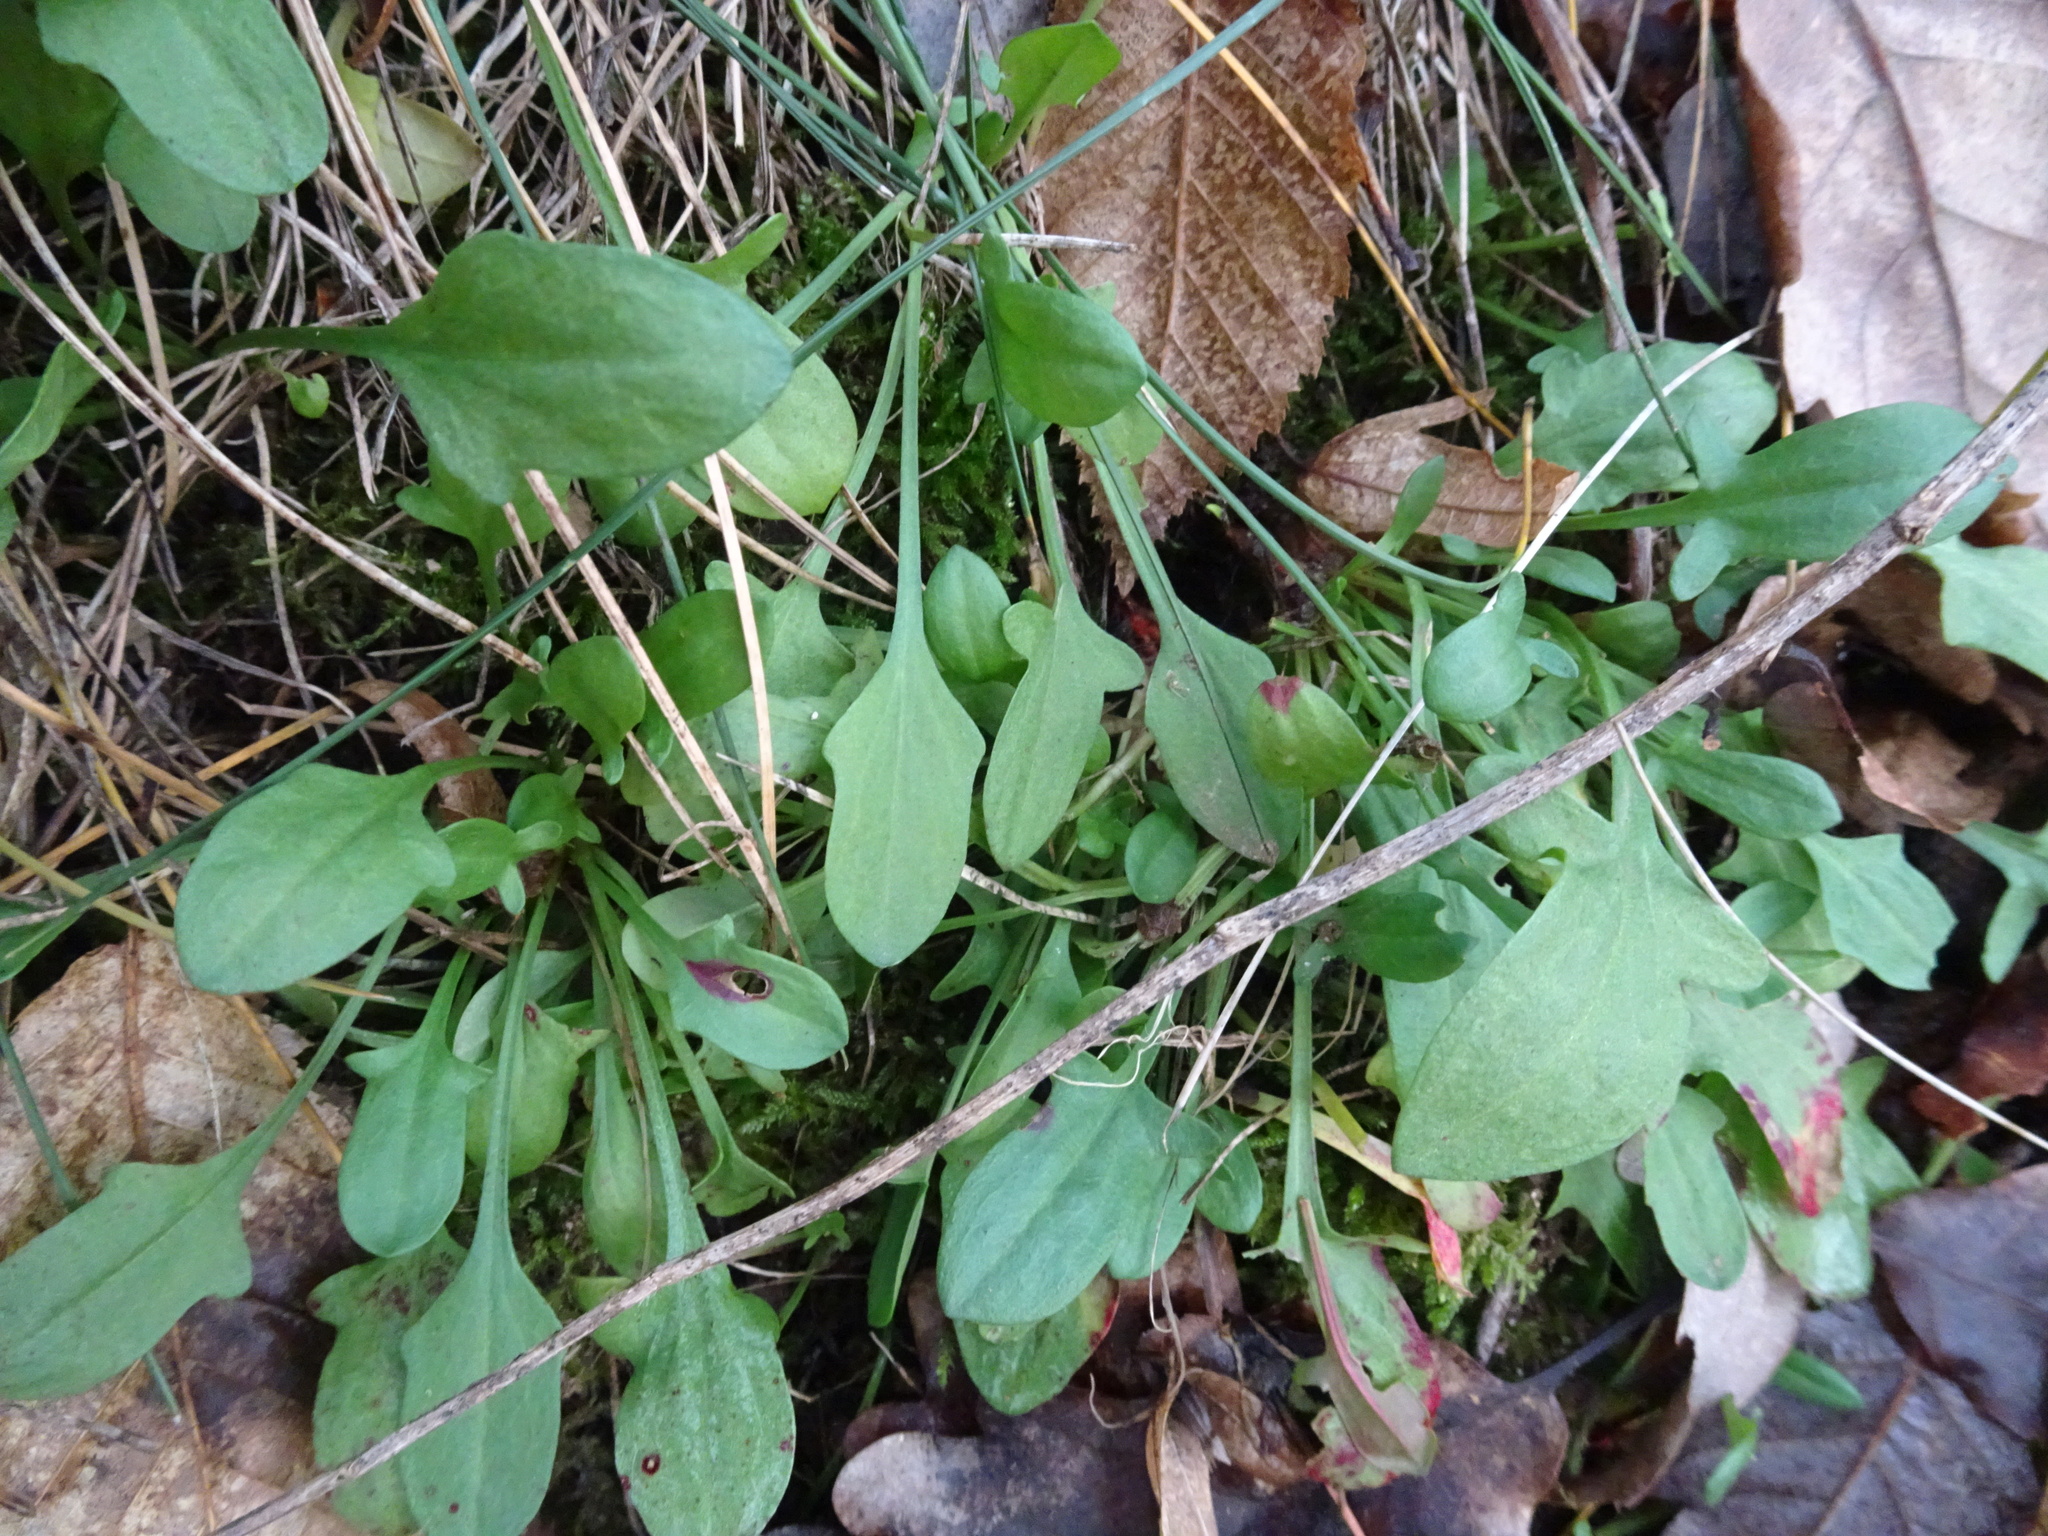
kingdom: Plantae
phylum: Tracheophyta
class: Magnoliopsida
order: Caryophyllales
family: Polygonaceae
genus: Rumex
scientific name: Rumex acetosella
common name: Common sheep sorrel
